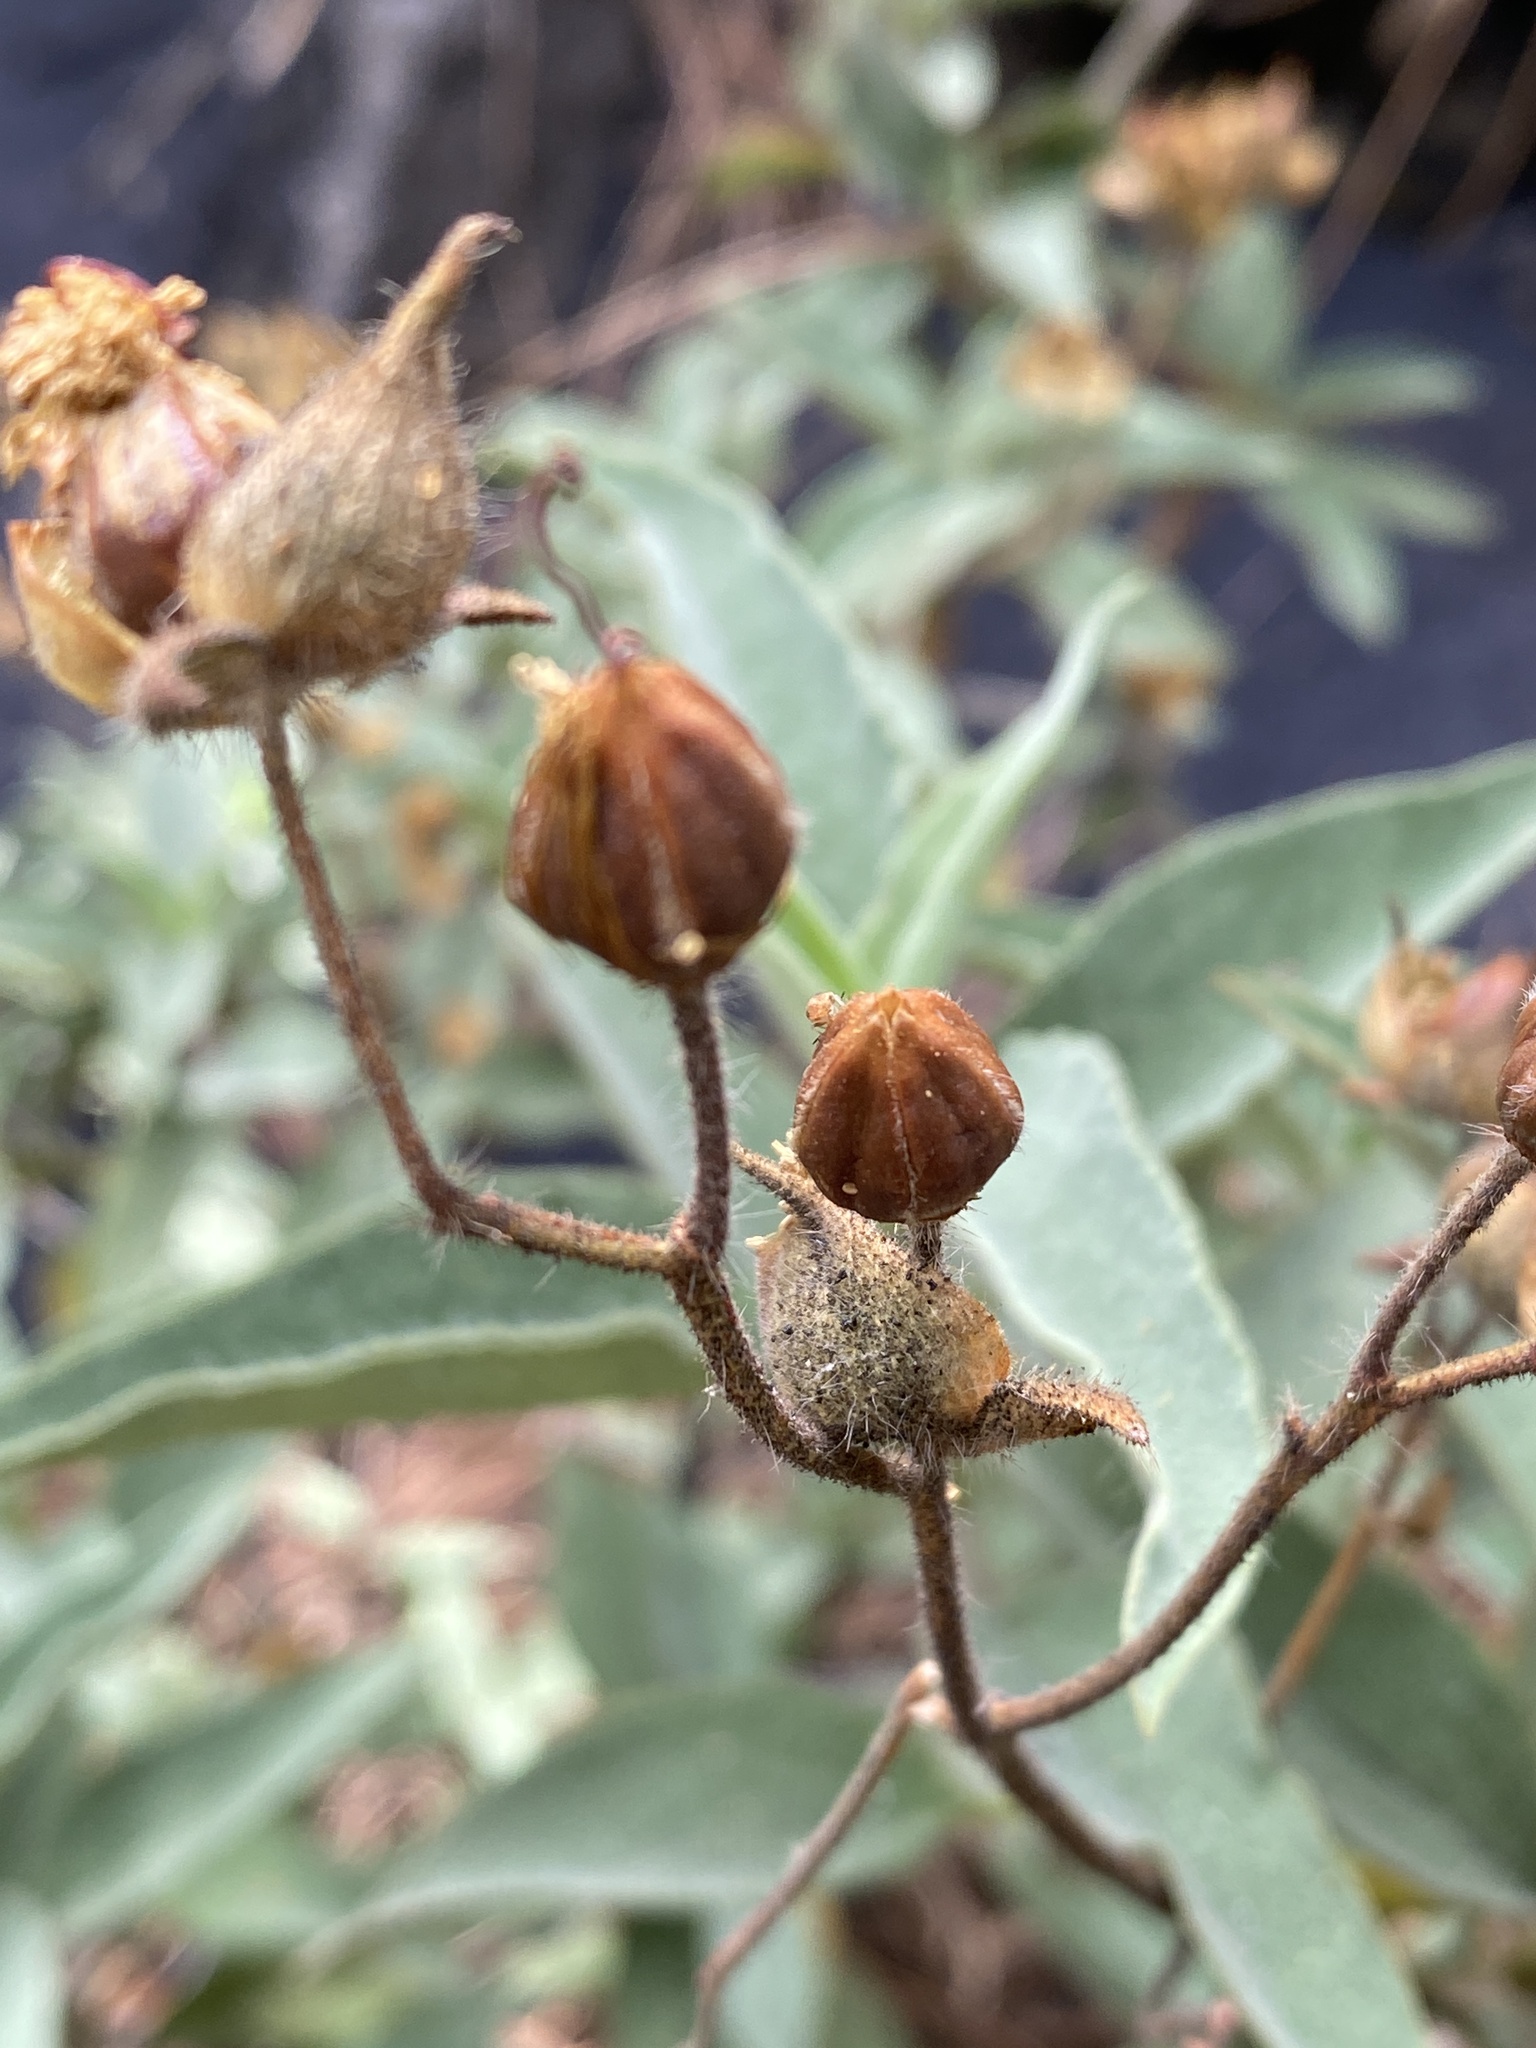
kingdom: Plantae
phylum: Tracheophyta
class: Magnoliopsida
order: Malvales
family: Cistaceae
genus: Cistus
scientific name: Cistus symphytifolius
